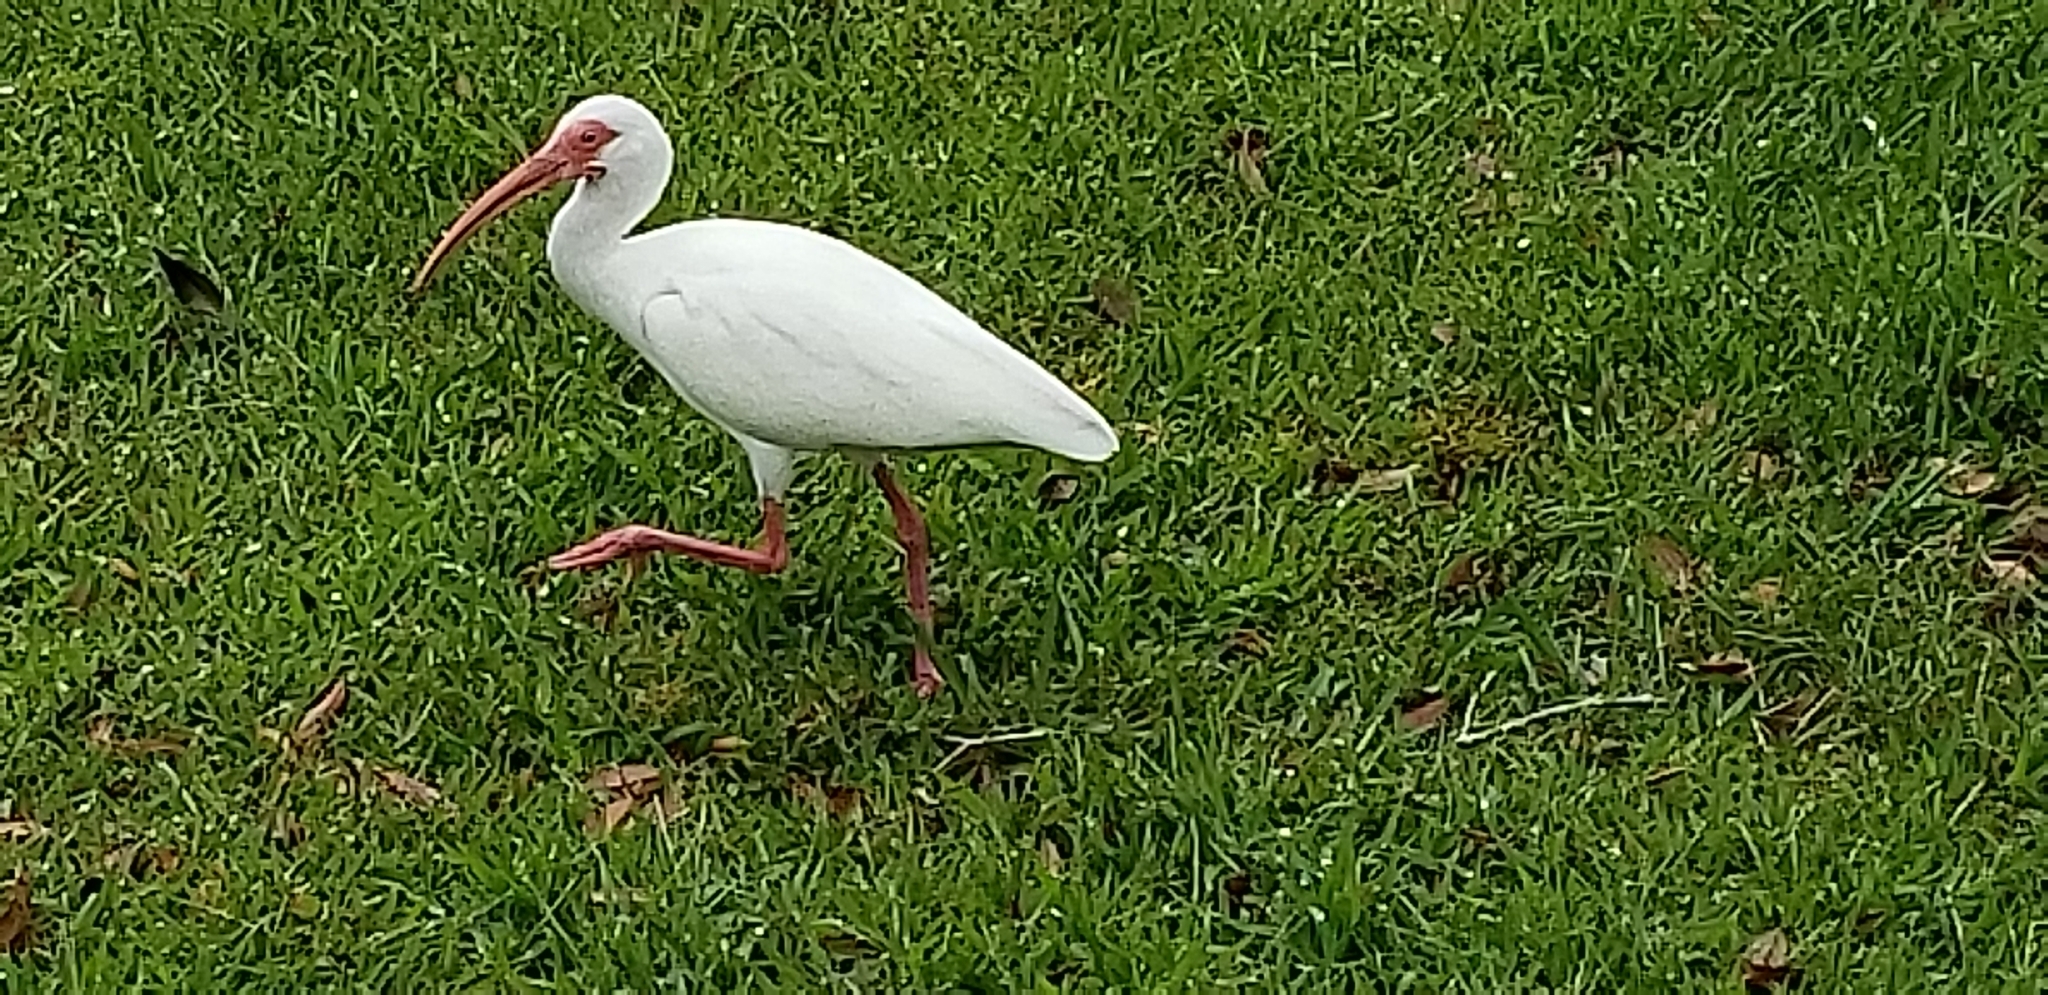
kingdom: Animalia
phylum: Chordata
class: Aves
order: Pelecaniformes
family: Threskiornithidae
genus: Eudocimus
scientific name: Eudocimus albus
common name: White ibis
